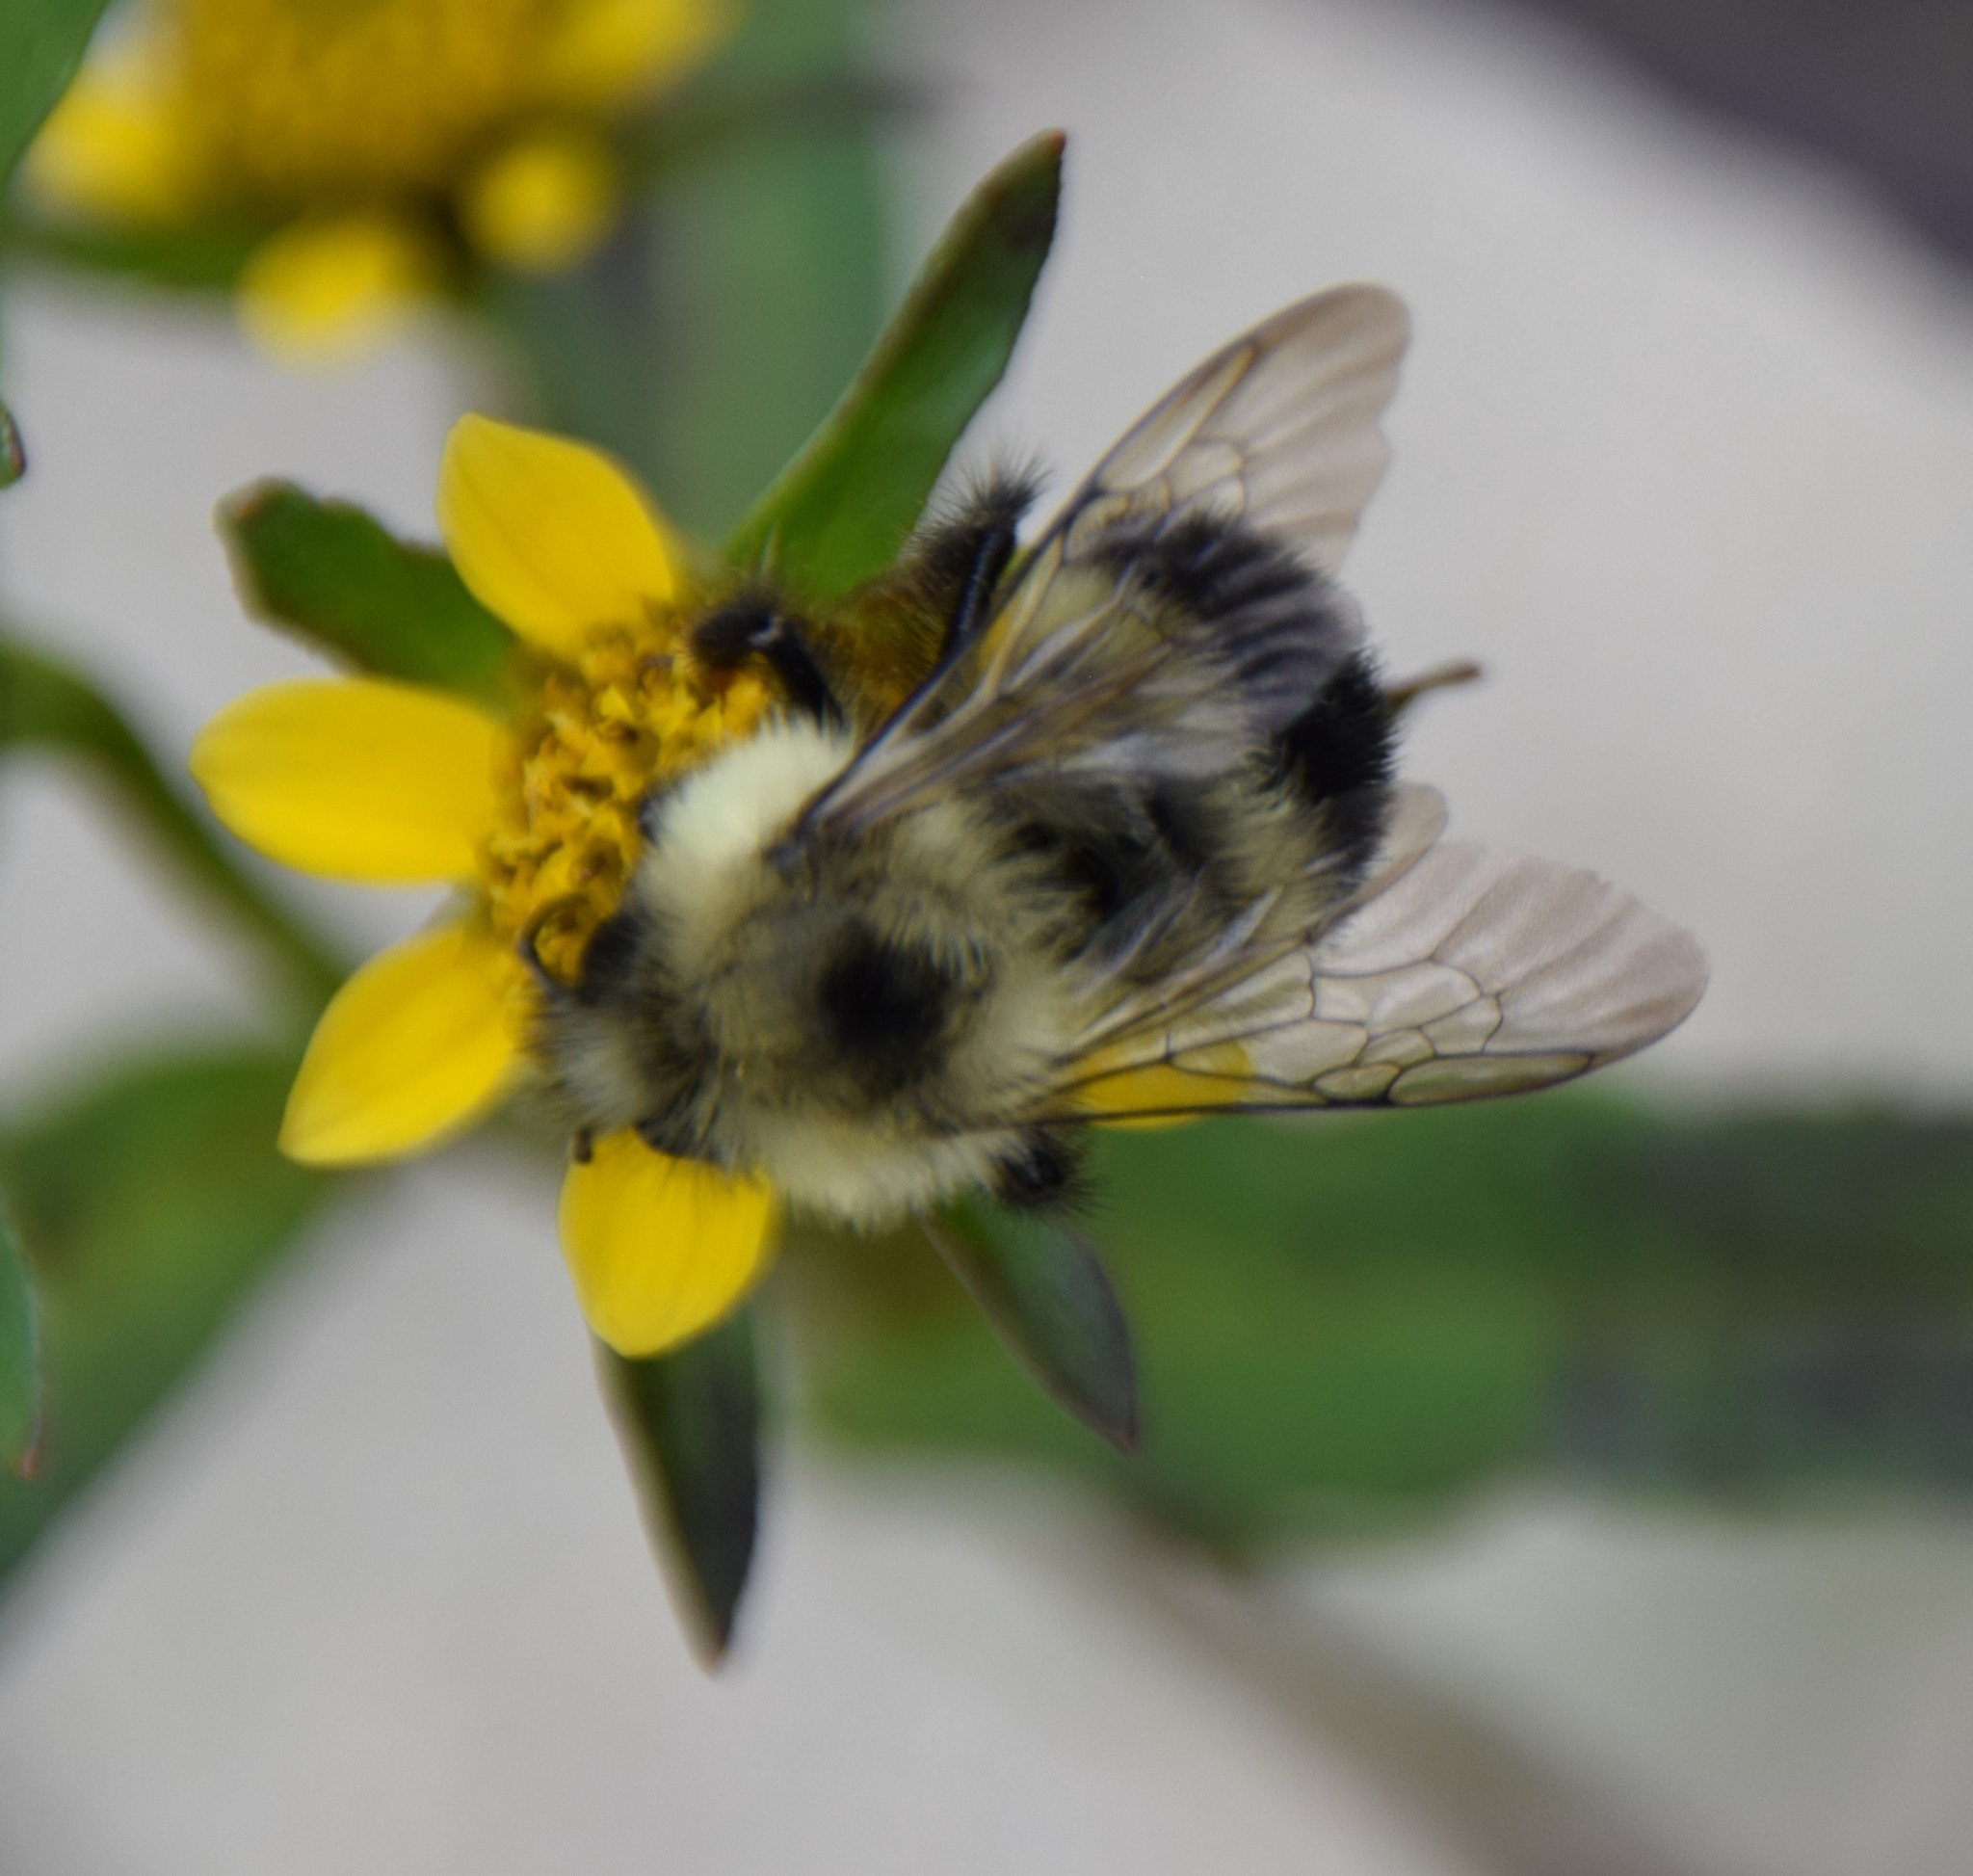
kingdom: Animalia
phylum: Arthropoda
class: Insecta
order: Hymenoptera
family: Apidae
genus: Pyrobombus
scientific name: Pyrobombus
